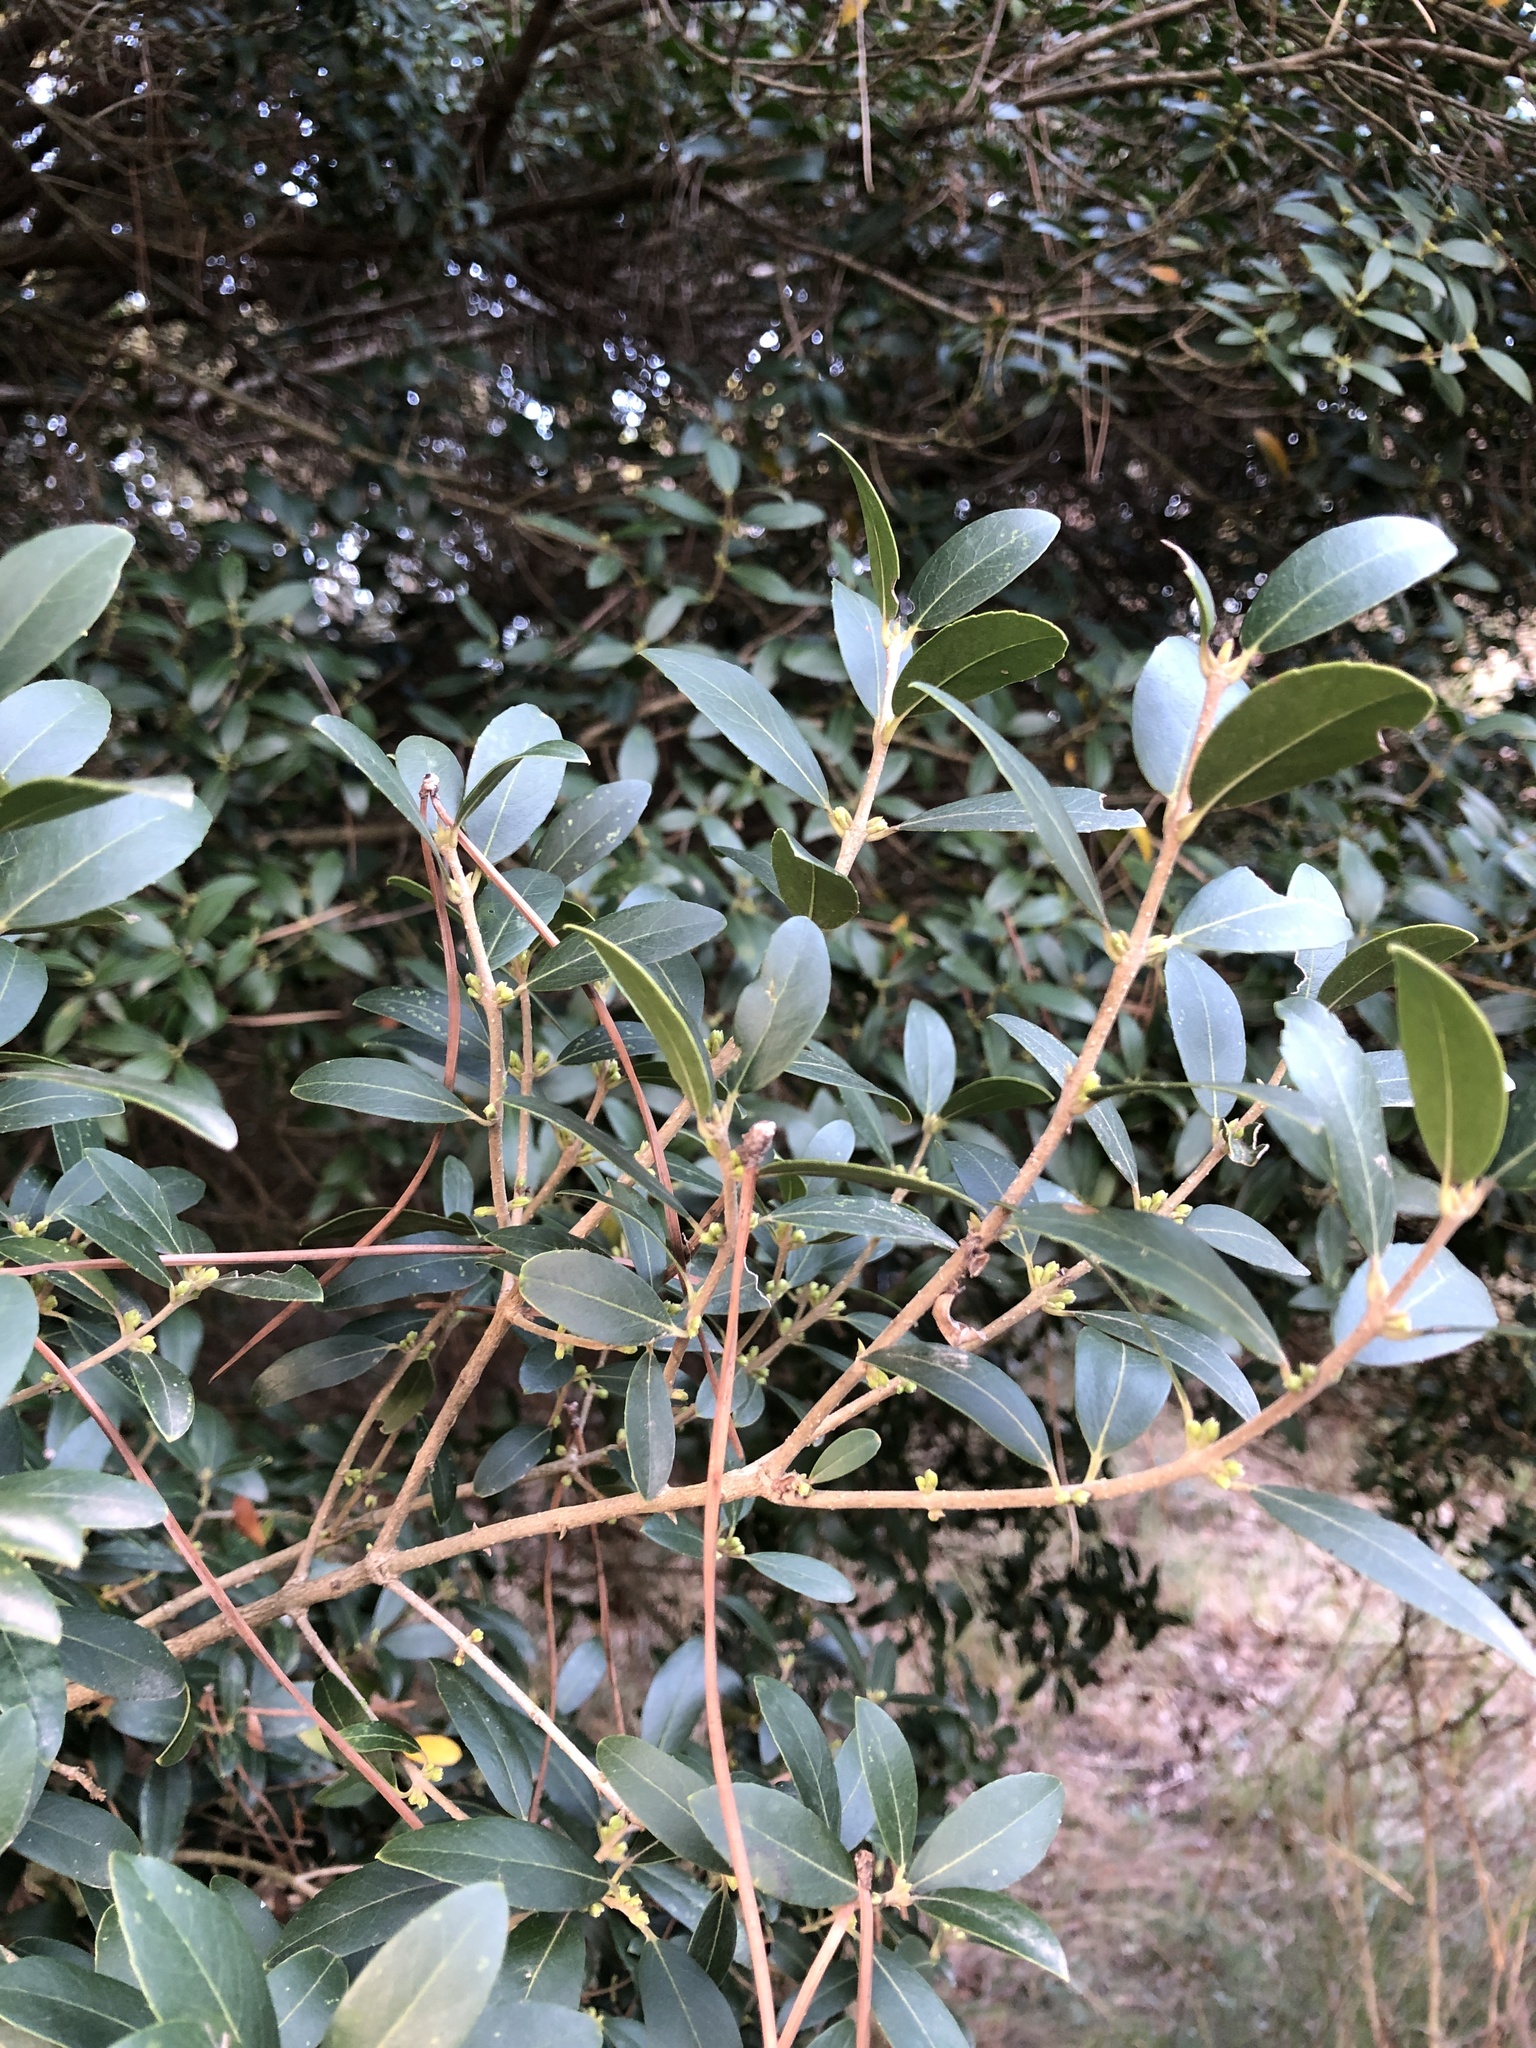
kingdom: Plantae
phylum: Tracheophyta
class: Magnoliopsida
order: Lamiales
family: Oleaceae
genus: Phillyrea
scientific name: Phillyrea latifolia
